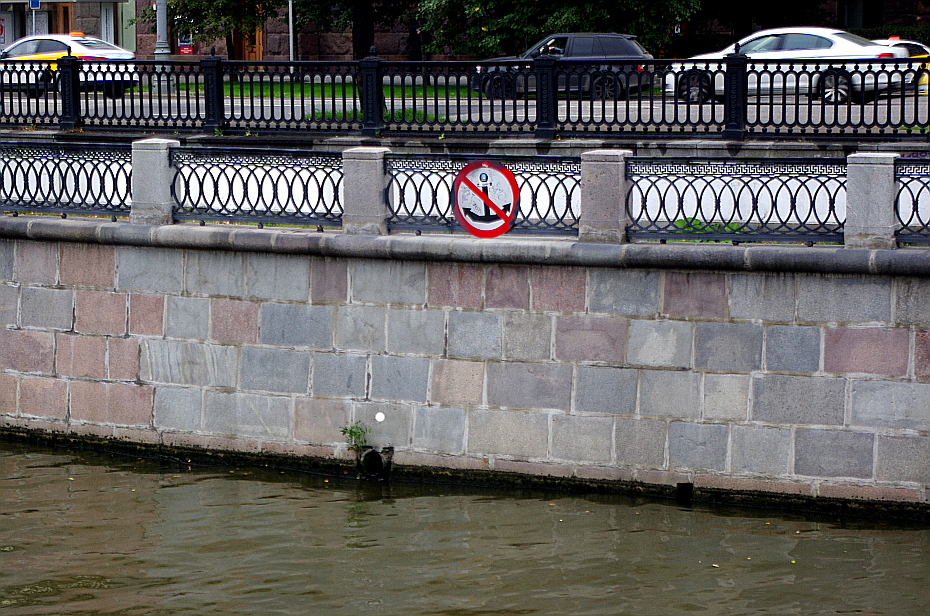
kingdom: Plantae
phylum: Tracheophyta
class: Magnoliopsida
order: Lamiales
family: Oleaceae
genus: Fraxinus
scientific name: Fraxinus pennsylvanica
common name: Green ash
